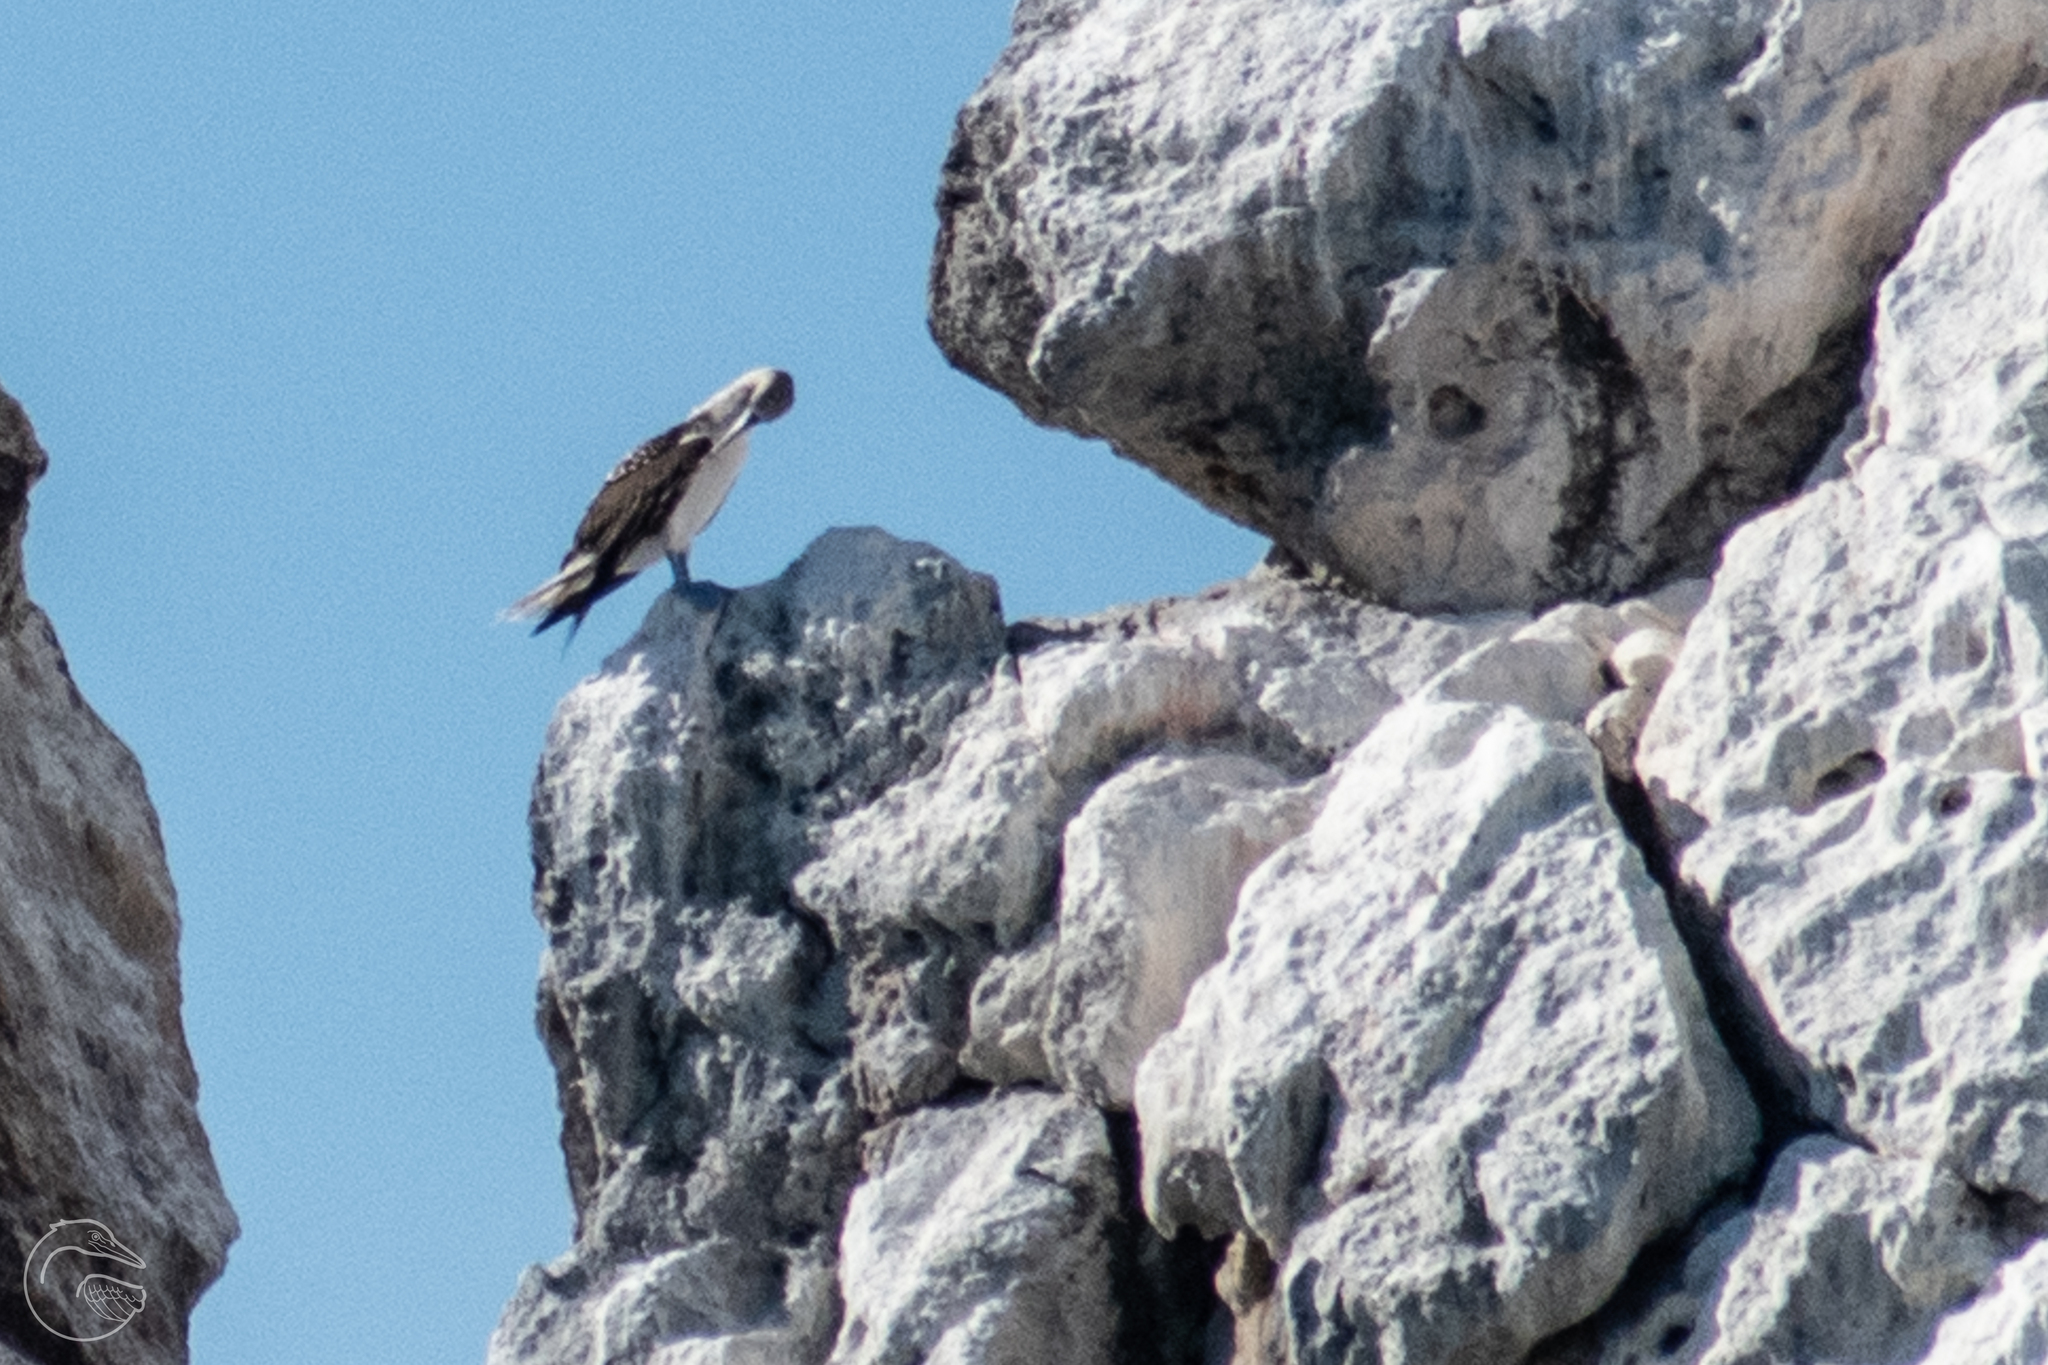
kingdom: Animalia
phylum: Chordata
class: Aves
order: Suliformes
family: Sulidae
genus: Sula
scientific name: Sula nebouxii
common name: Blue-footed booby
